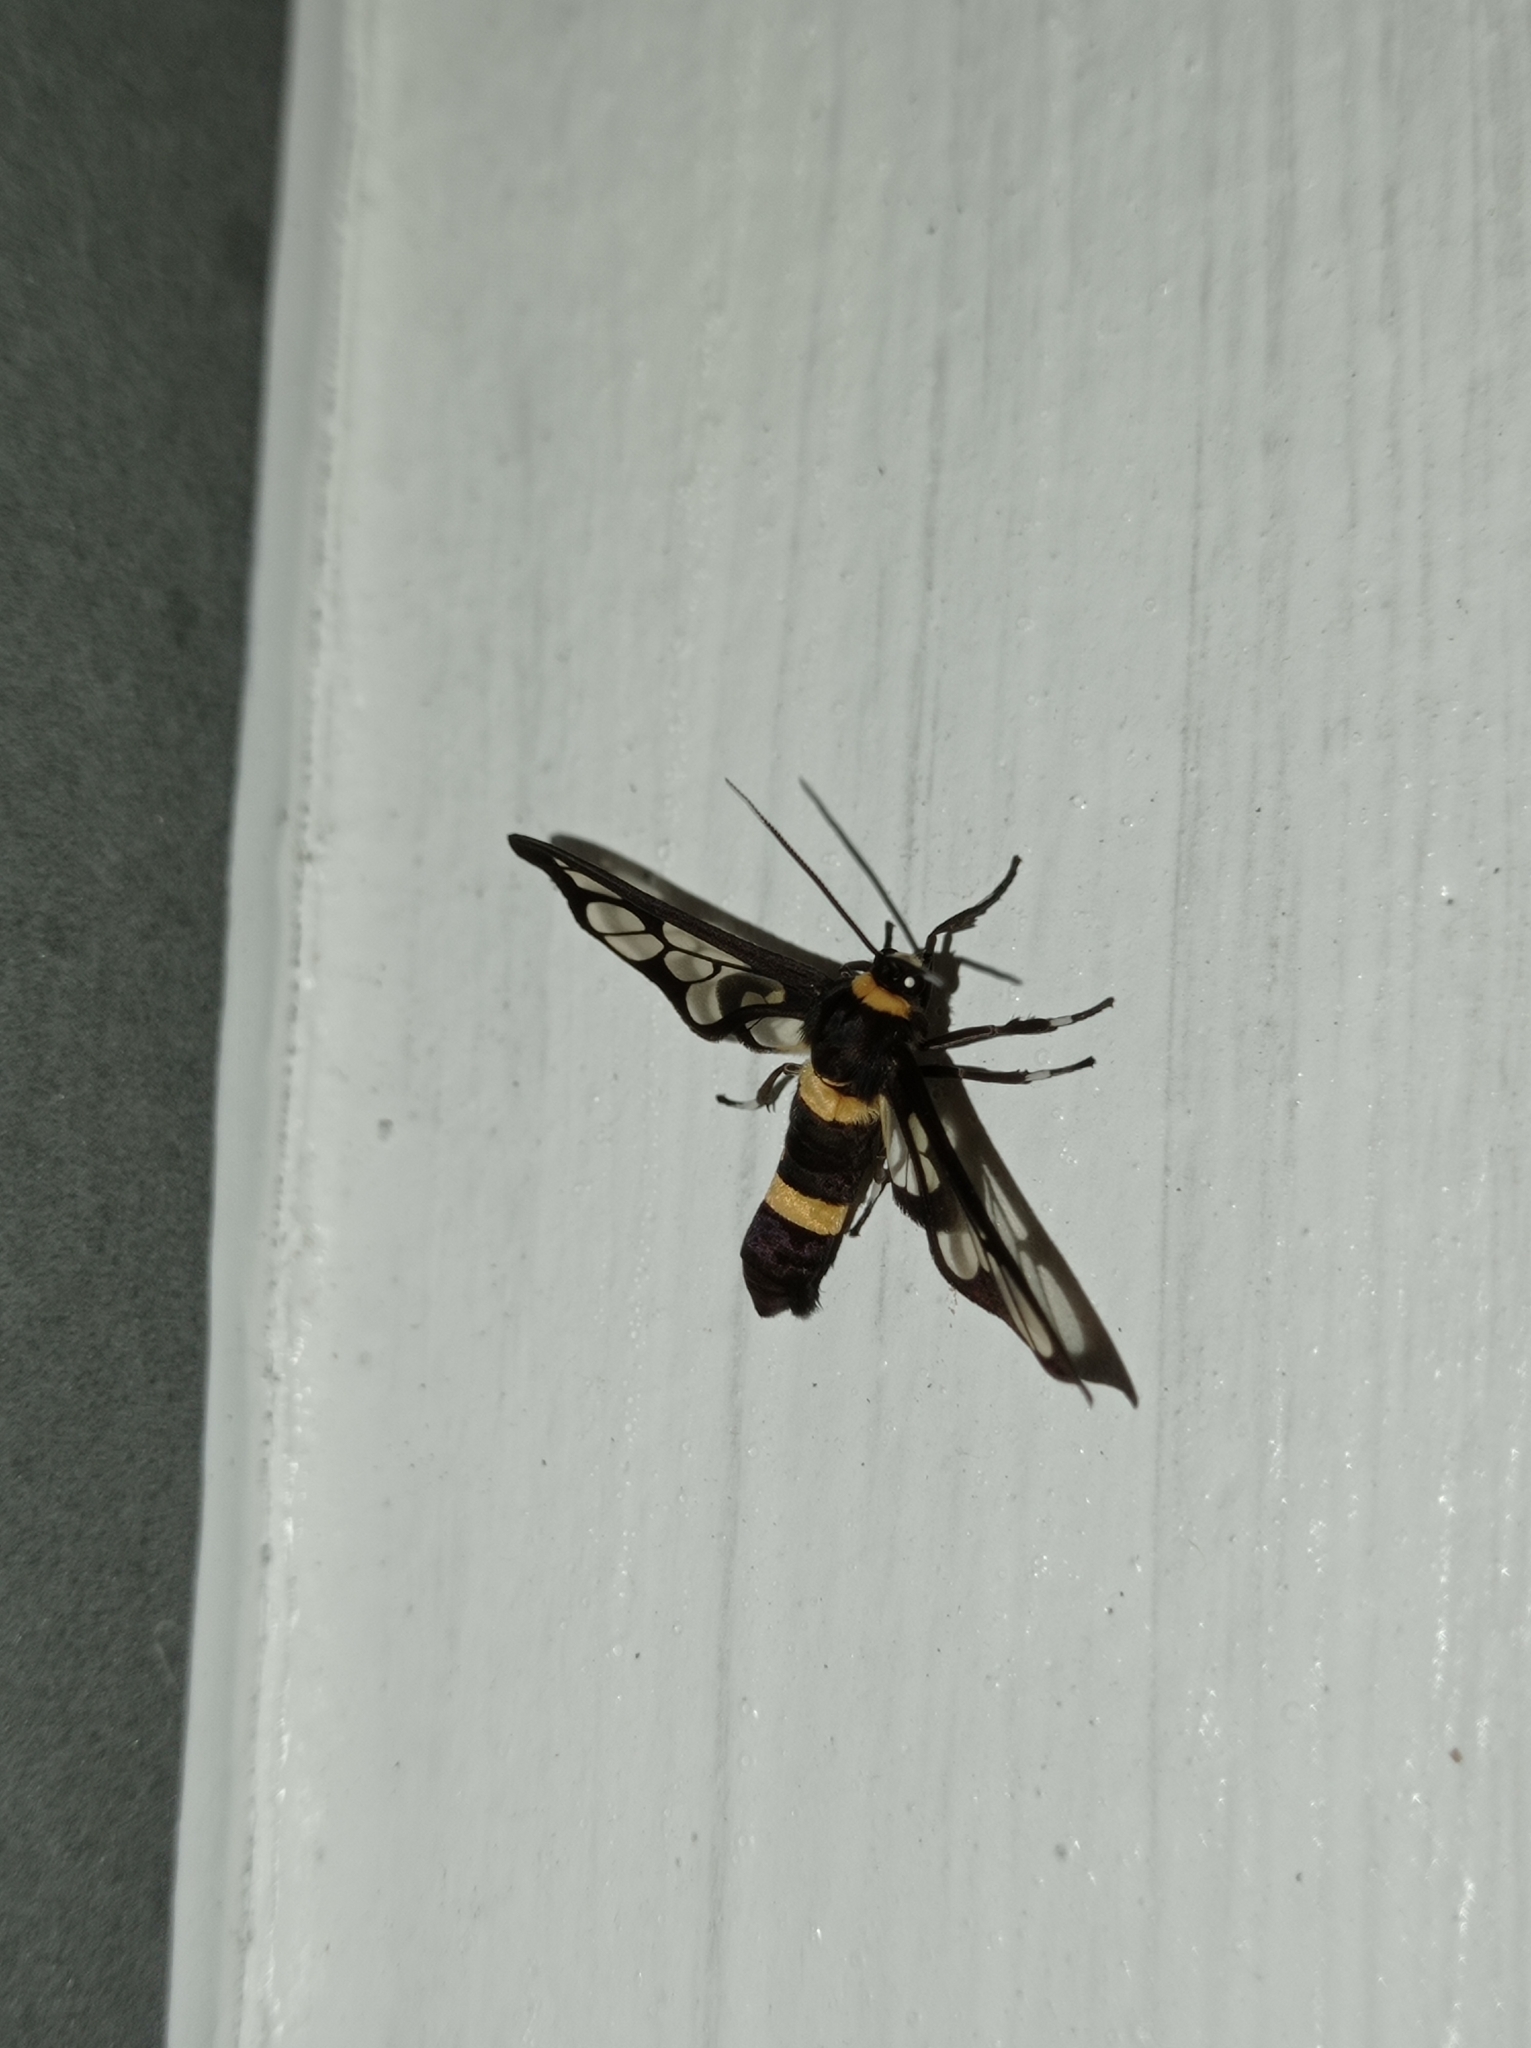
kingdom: Animalia
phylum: Arthropoda
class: Insecta
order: Lepidoptera
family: Erebidae
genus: Syntomoides
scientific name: Syntomoides imaon
